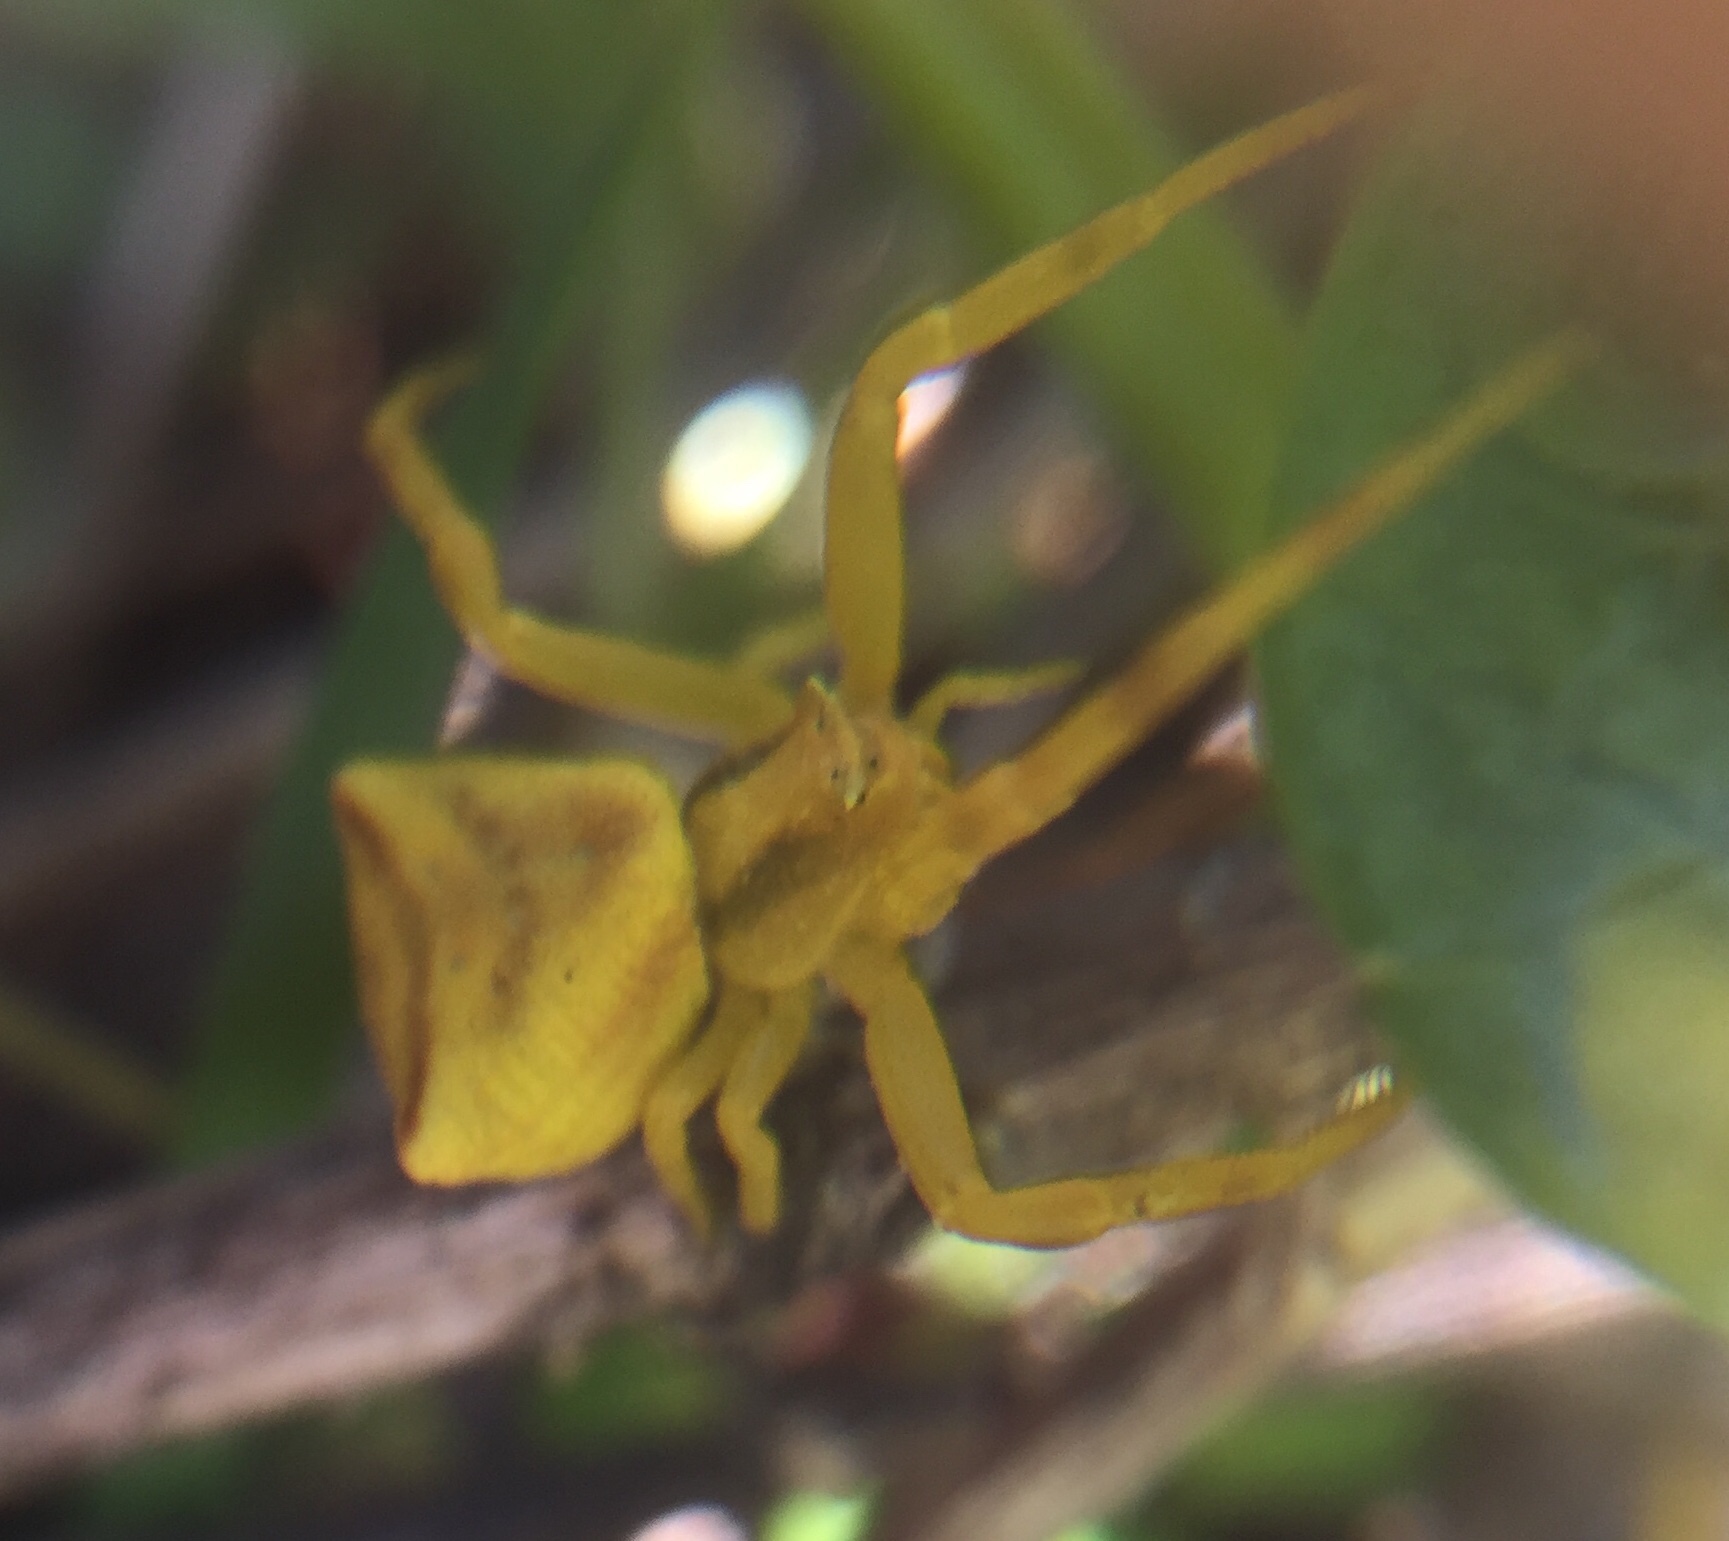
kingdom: Animalia
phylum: Arthropoda
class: Arachnida
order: Araneae
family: Thomisidae
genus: Thomisus
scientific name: Thomisus onustus
